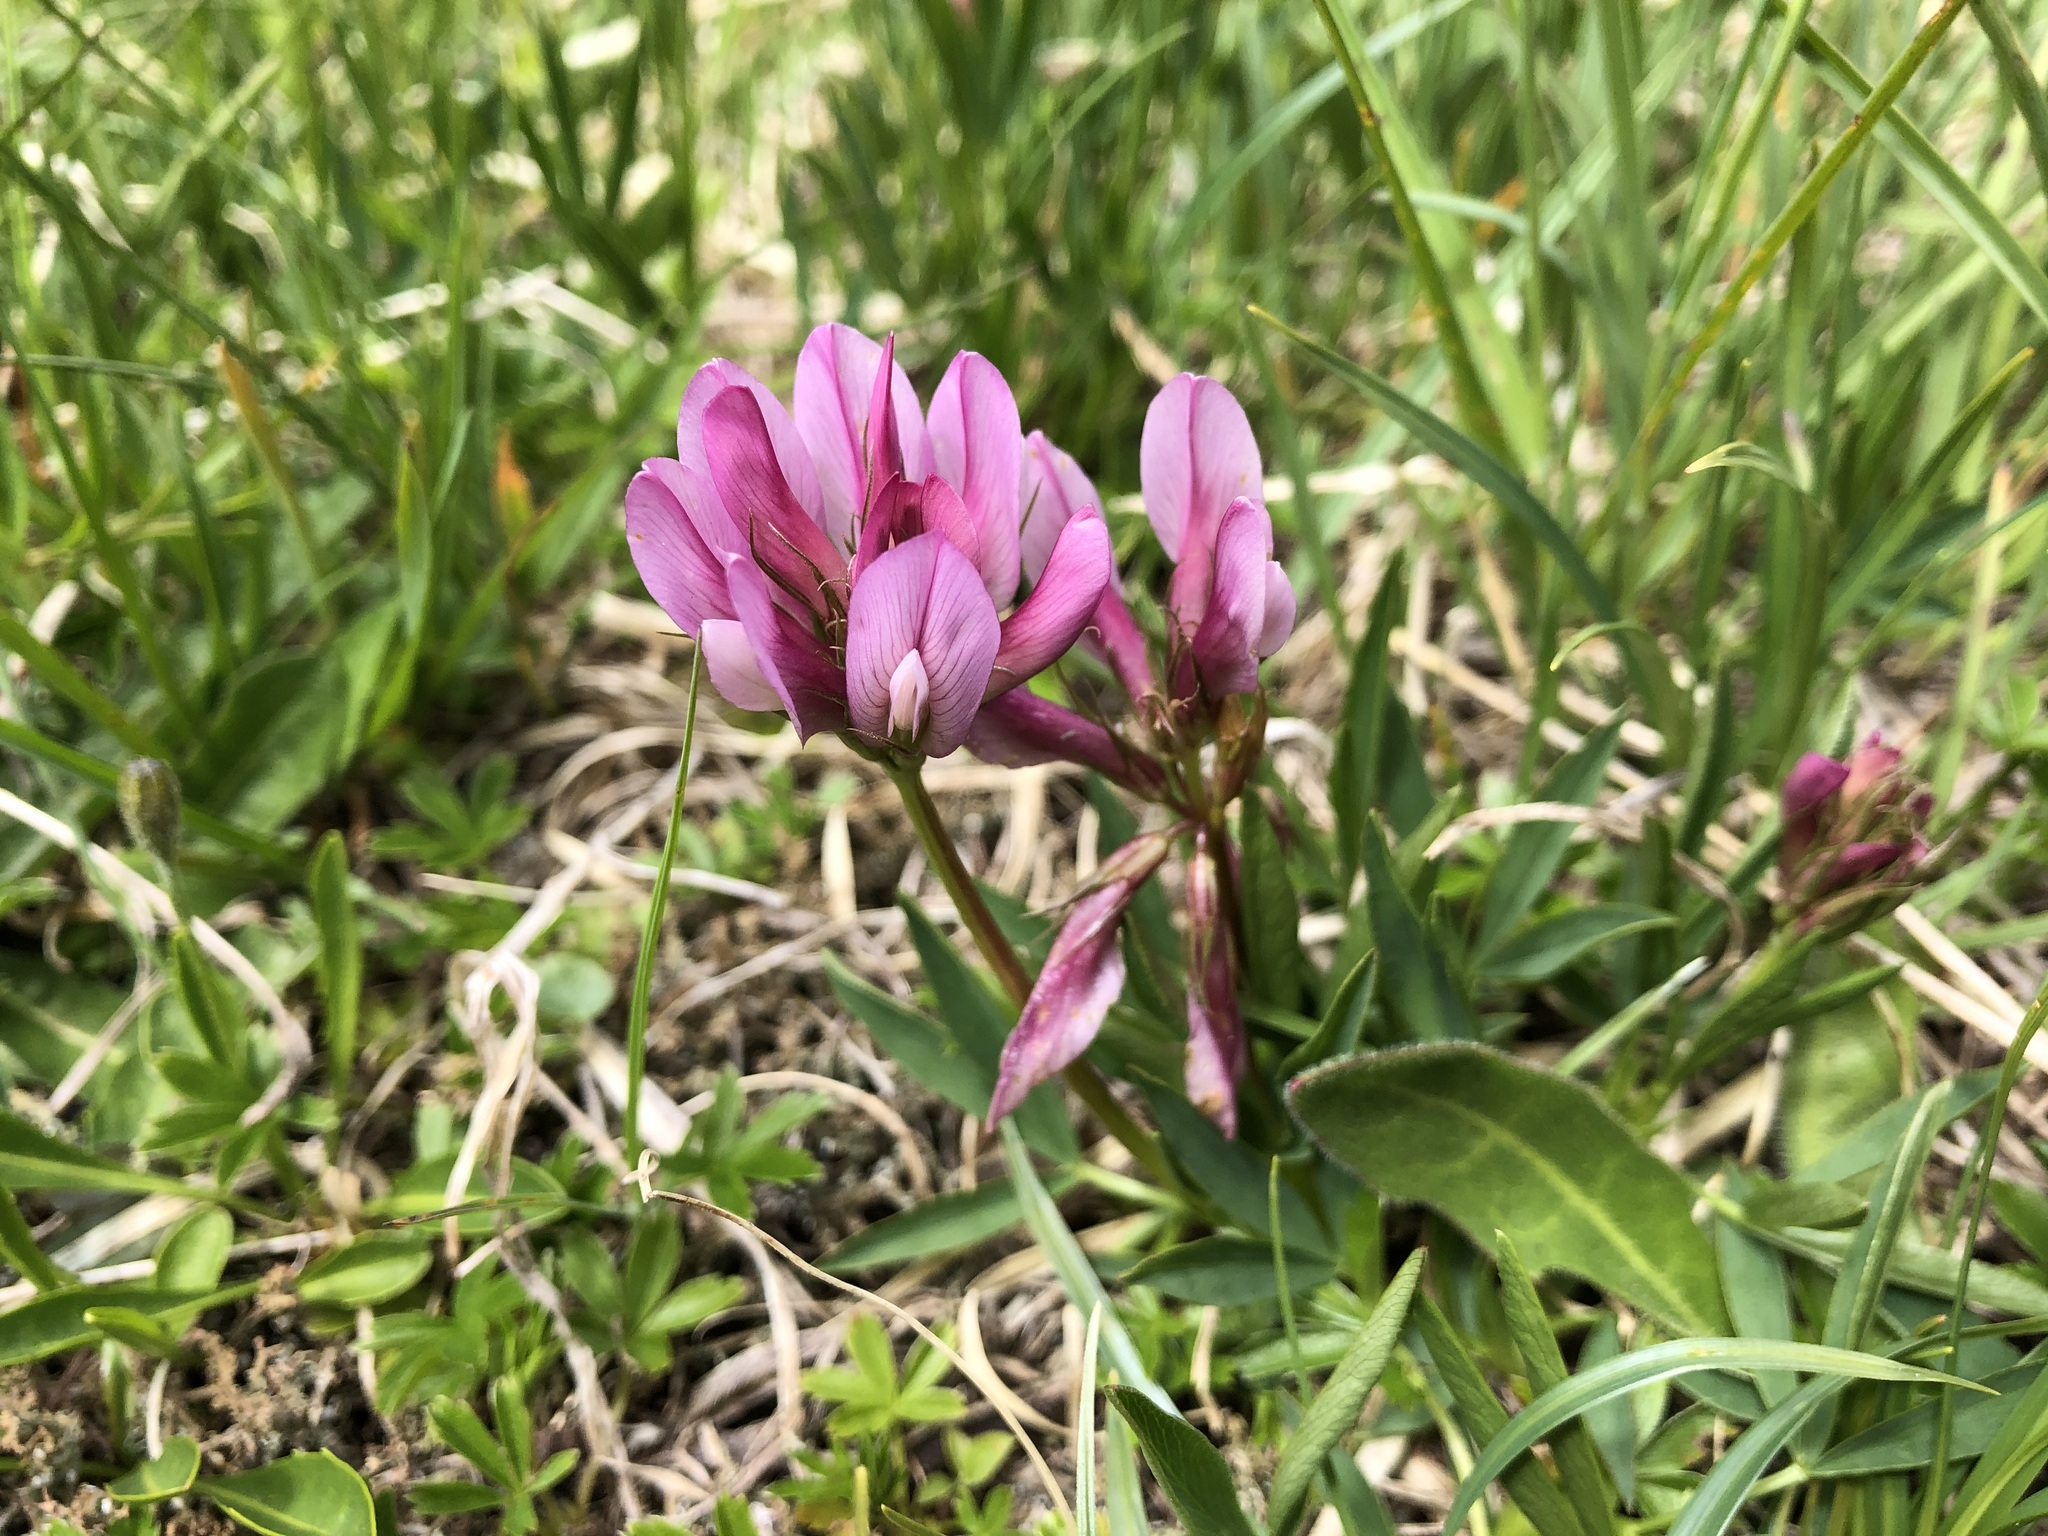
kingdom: Plantae
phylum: Tracheophyta
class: Magnoliopsida
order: Fabales
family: Fabaceae
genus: Trifolium
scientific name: Trifolium alpinum
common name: Alpine clover
